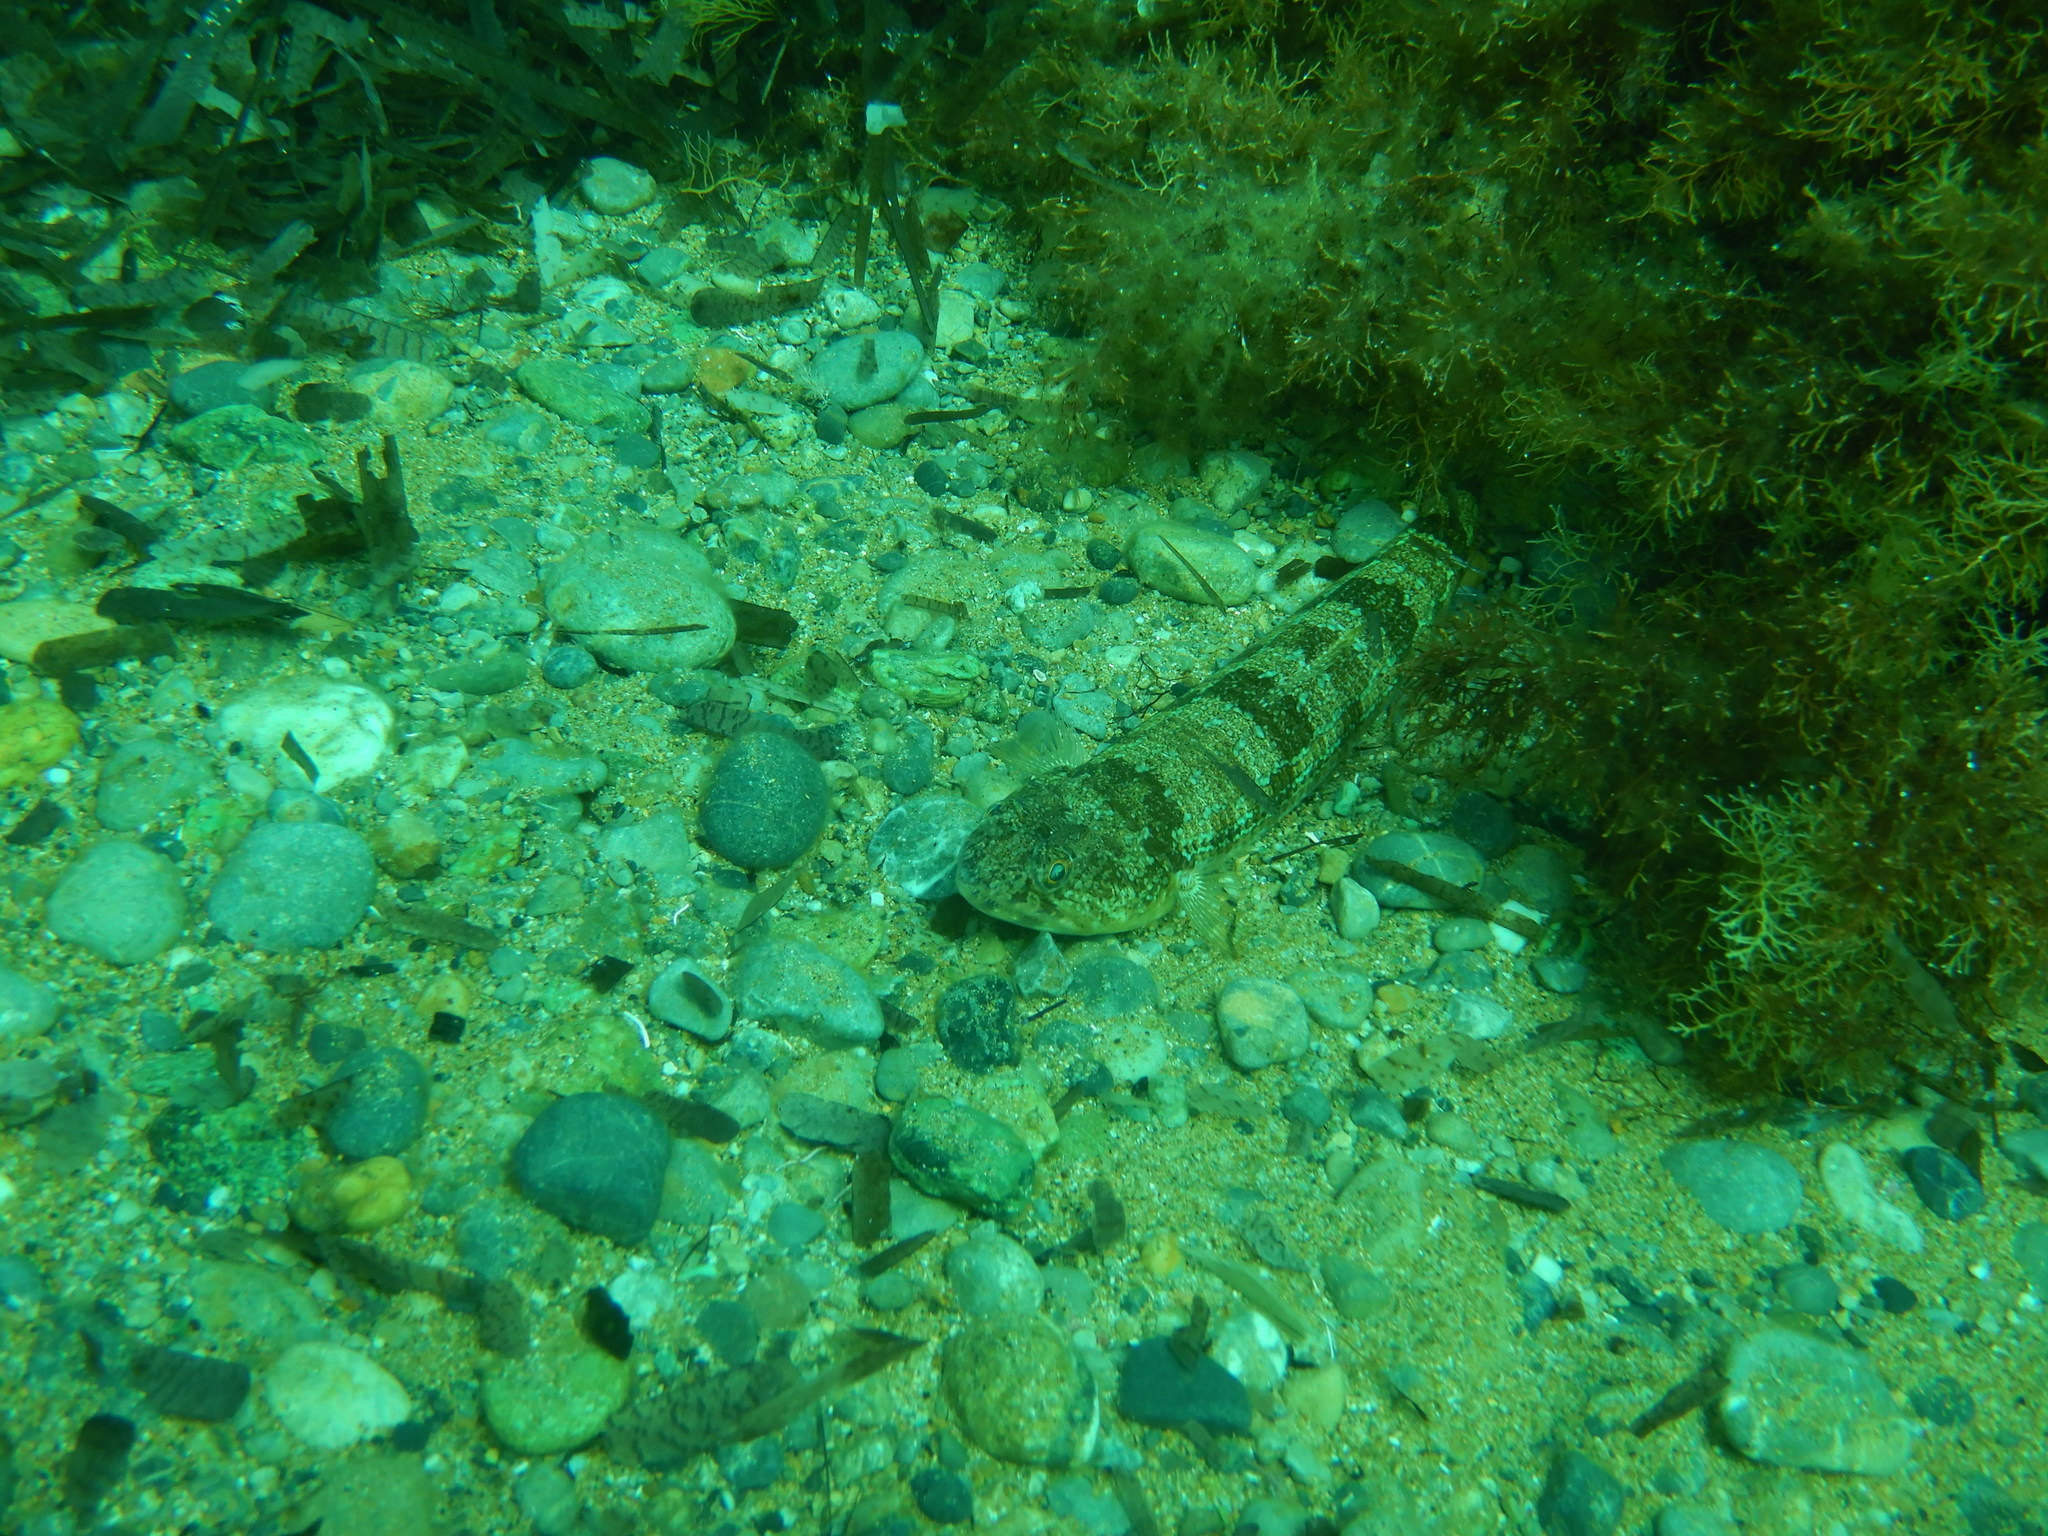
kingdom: Animalia
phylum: Chordata
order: Aulopiformes
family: Synodontidae
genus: Synodus
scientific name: Synodus saurus
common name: Atlantic lizardfish
